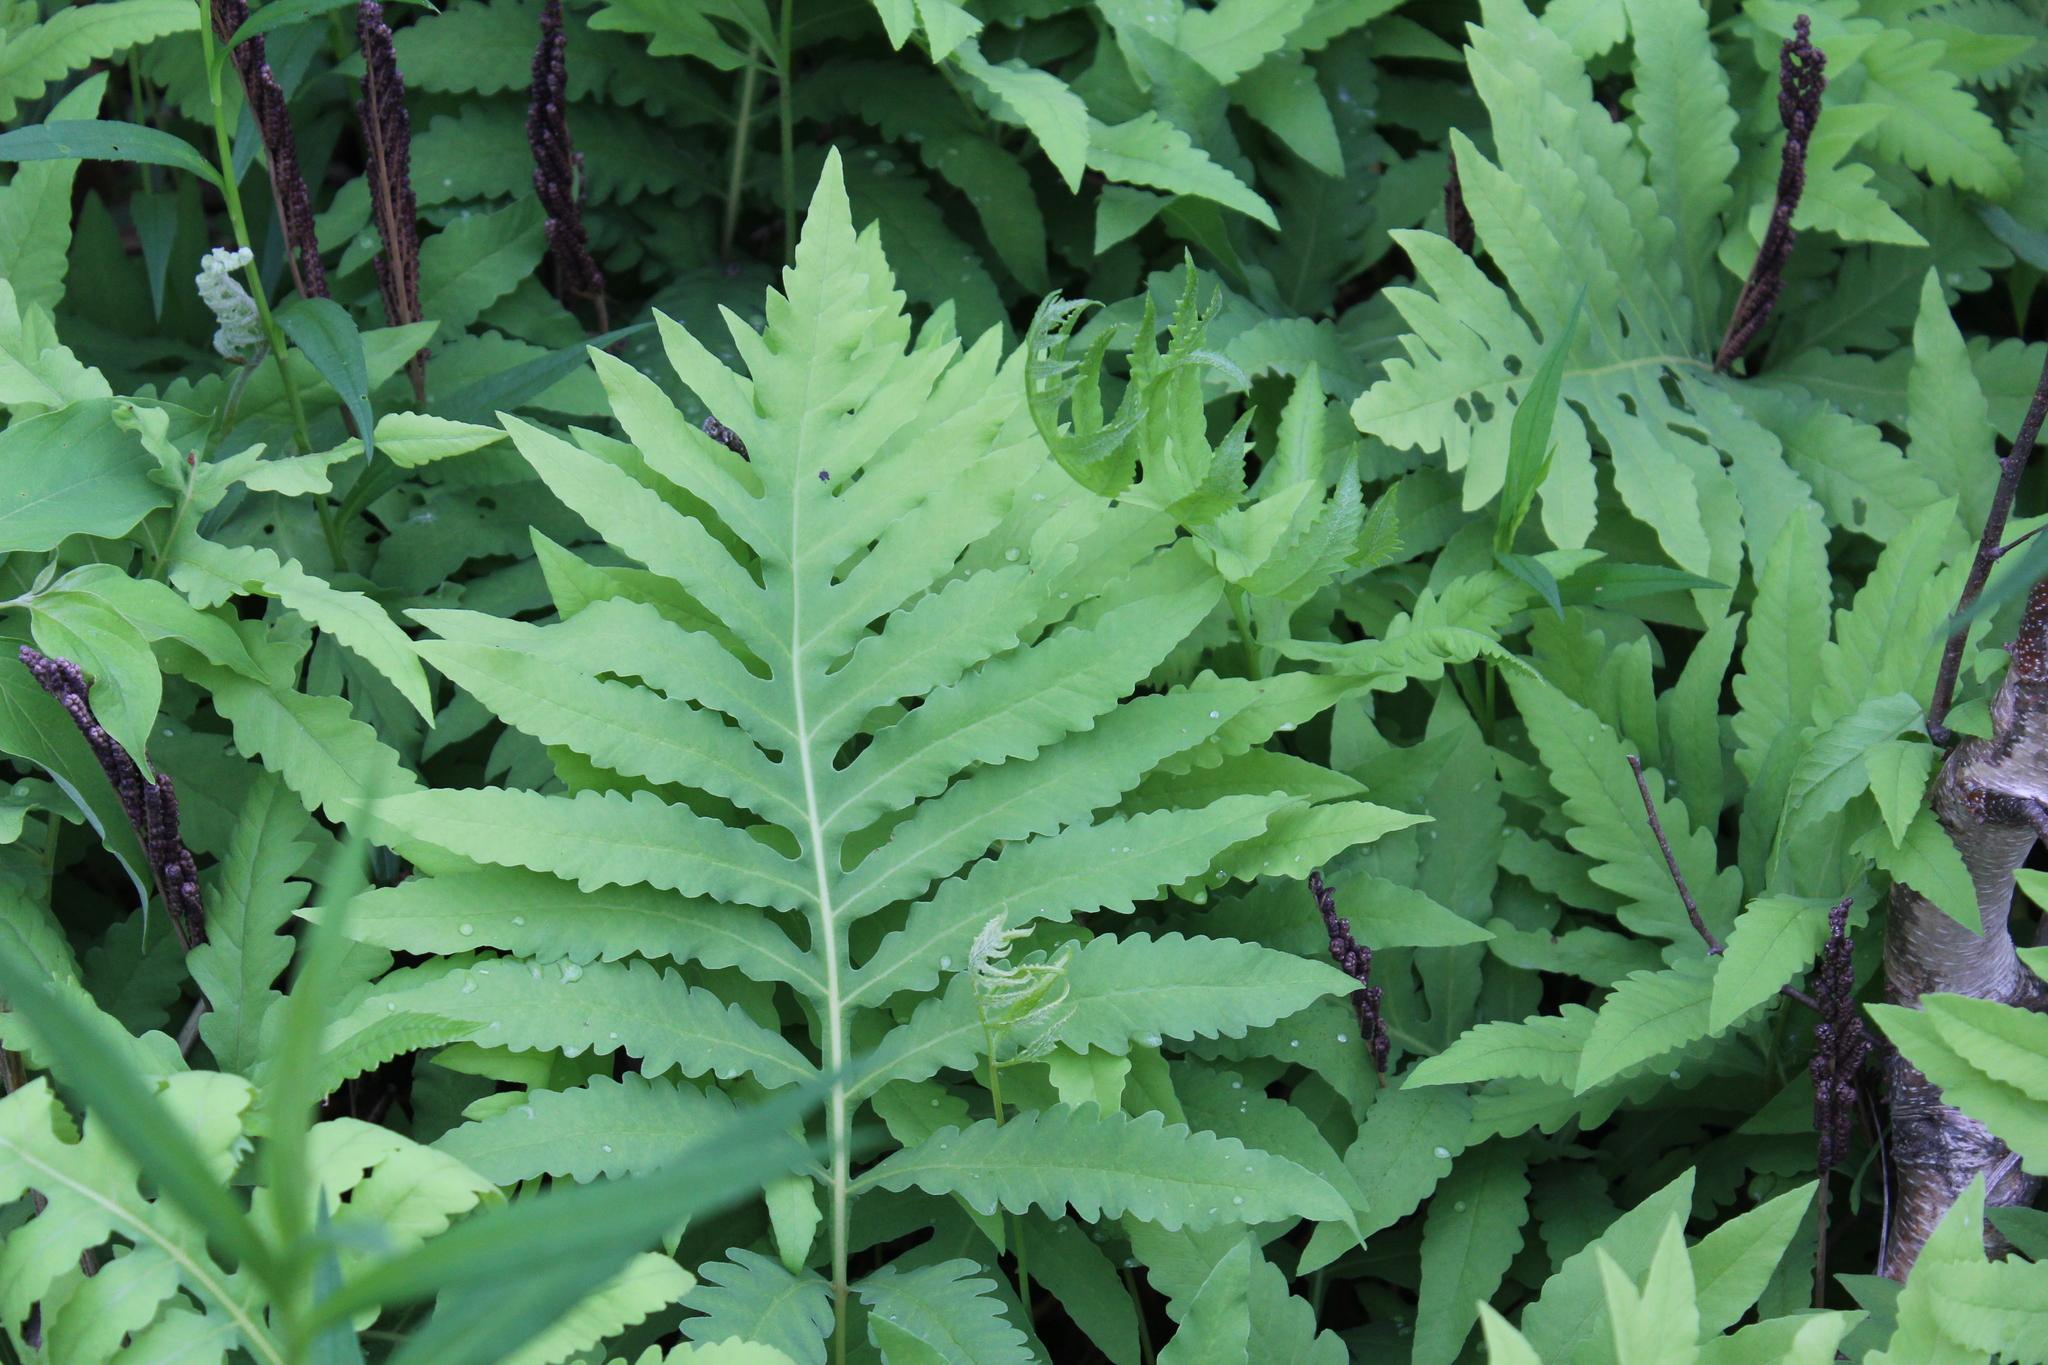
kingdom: Plantae
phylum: Tracheophyta
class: Polypodiopsida
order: Polypodiales
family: Onocleaceae
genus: Onoclea
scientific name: Onoclea sensibilis
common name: Sensitive fern
